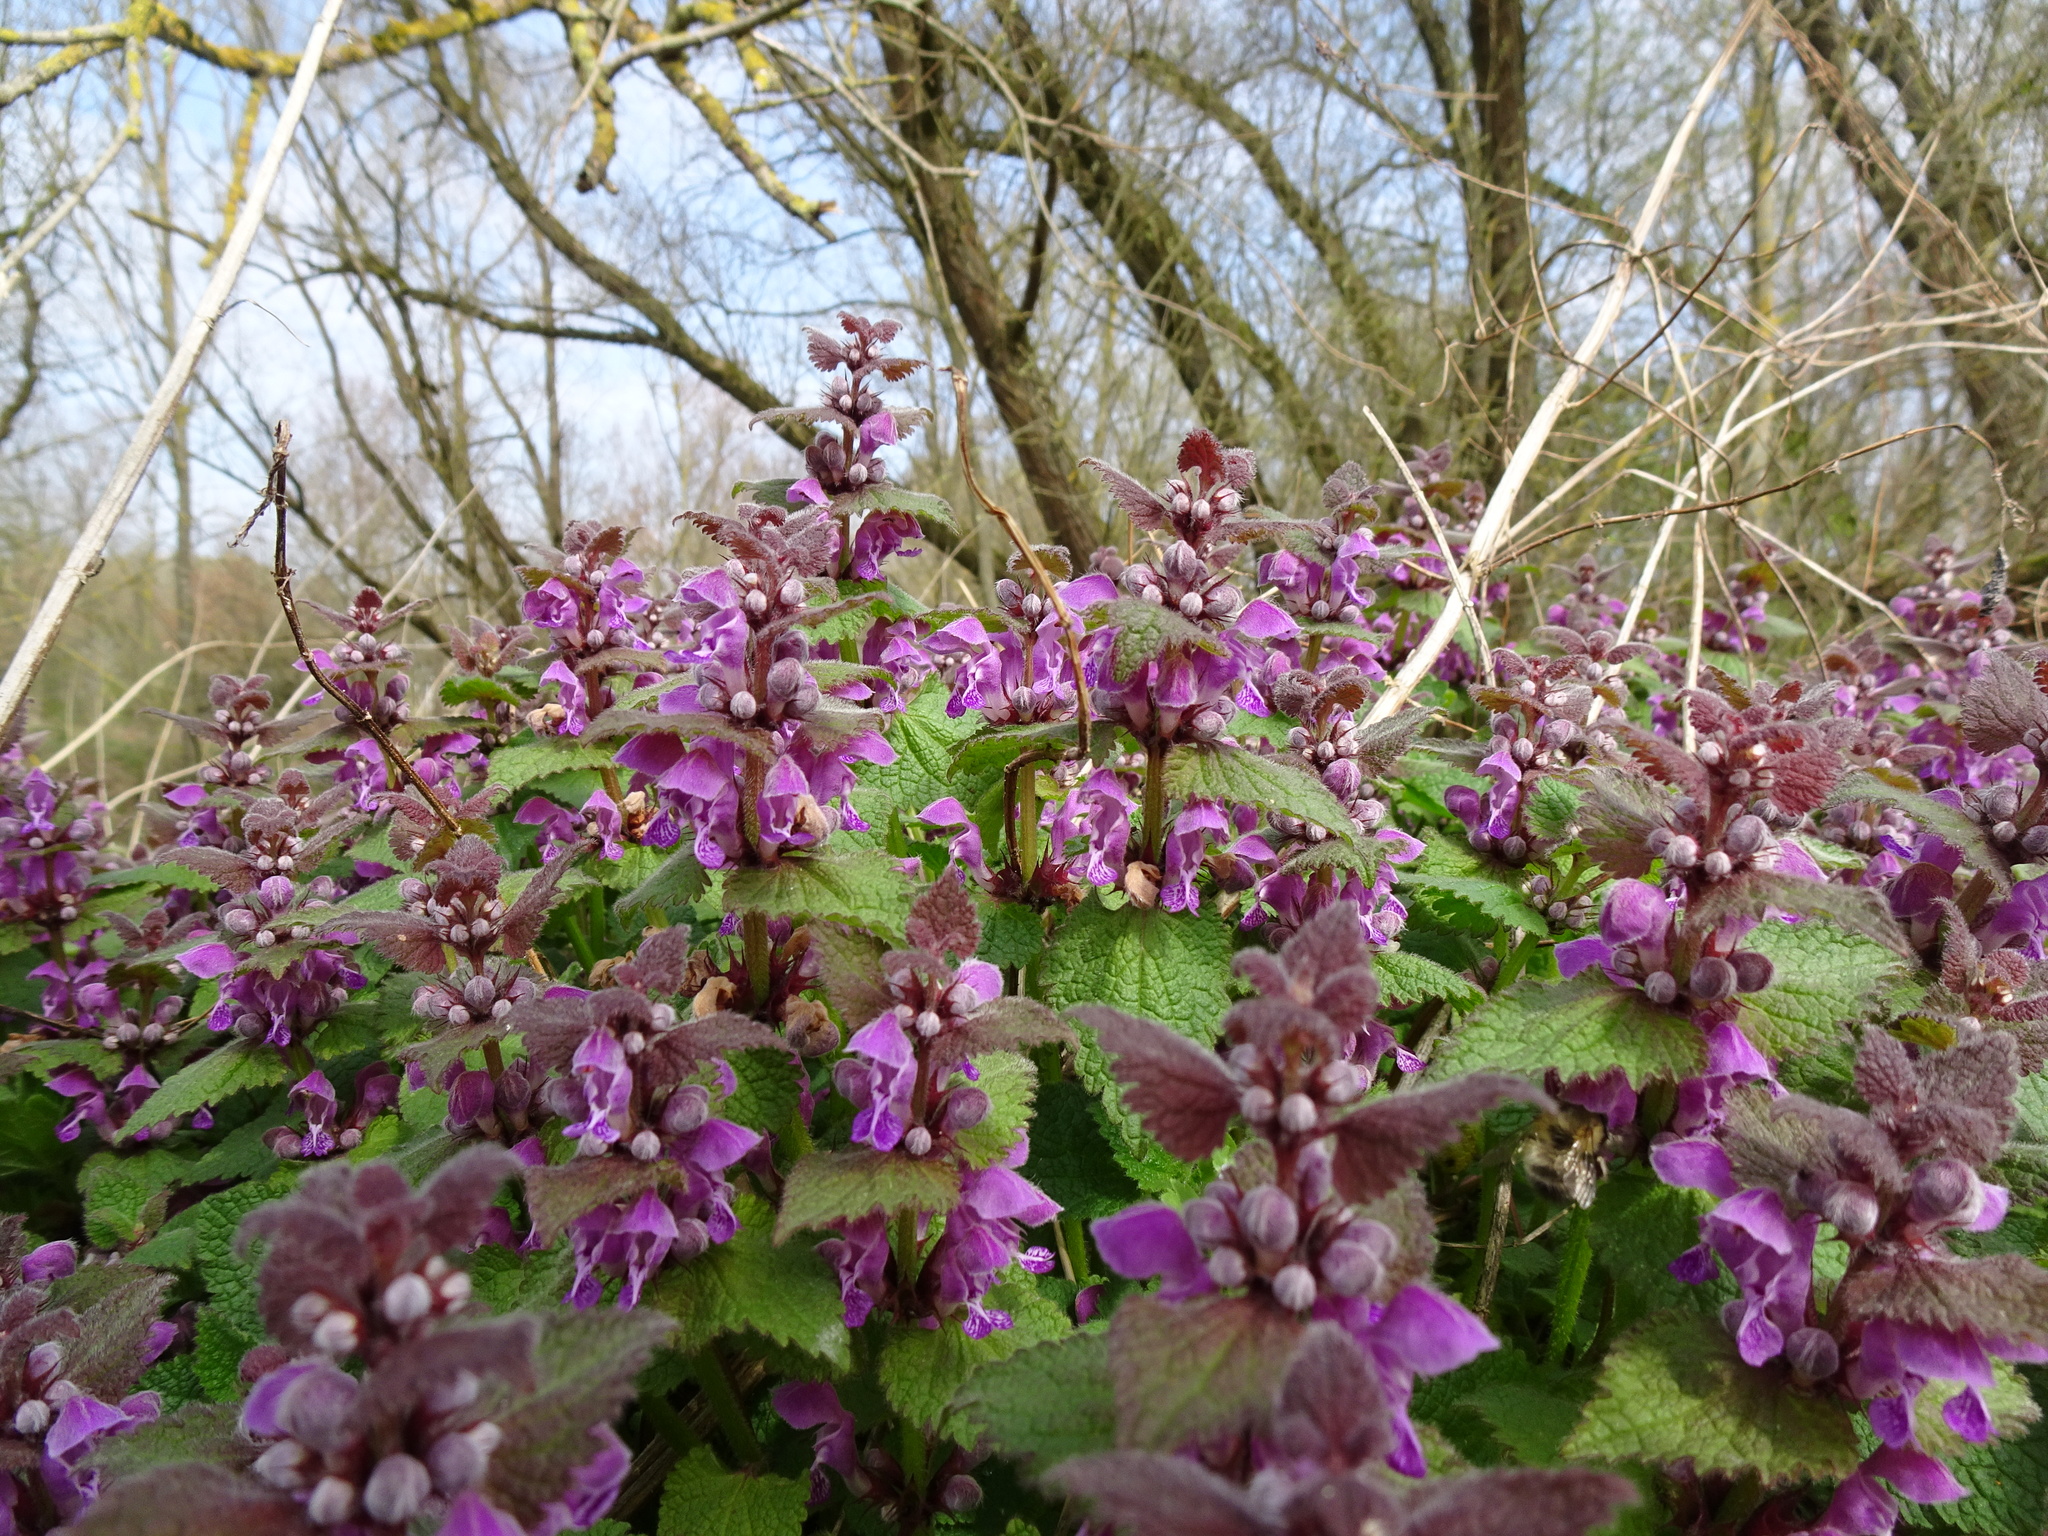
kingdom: Plantae
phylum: Tracheophyta
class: Magnoliopsida
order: Lamiales
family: Lamiaceae
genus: Lamium
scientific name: Lamium maculatum
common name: Spotted dead-nettle
